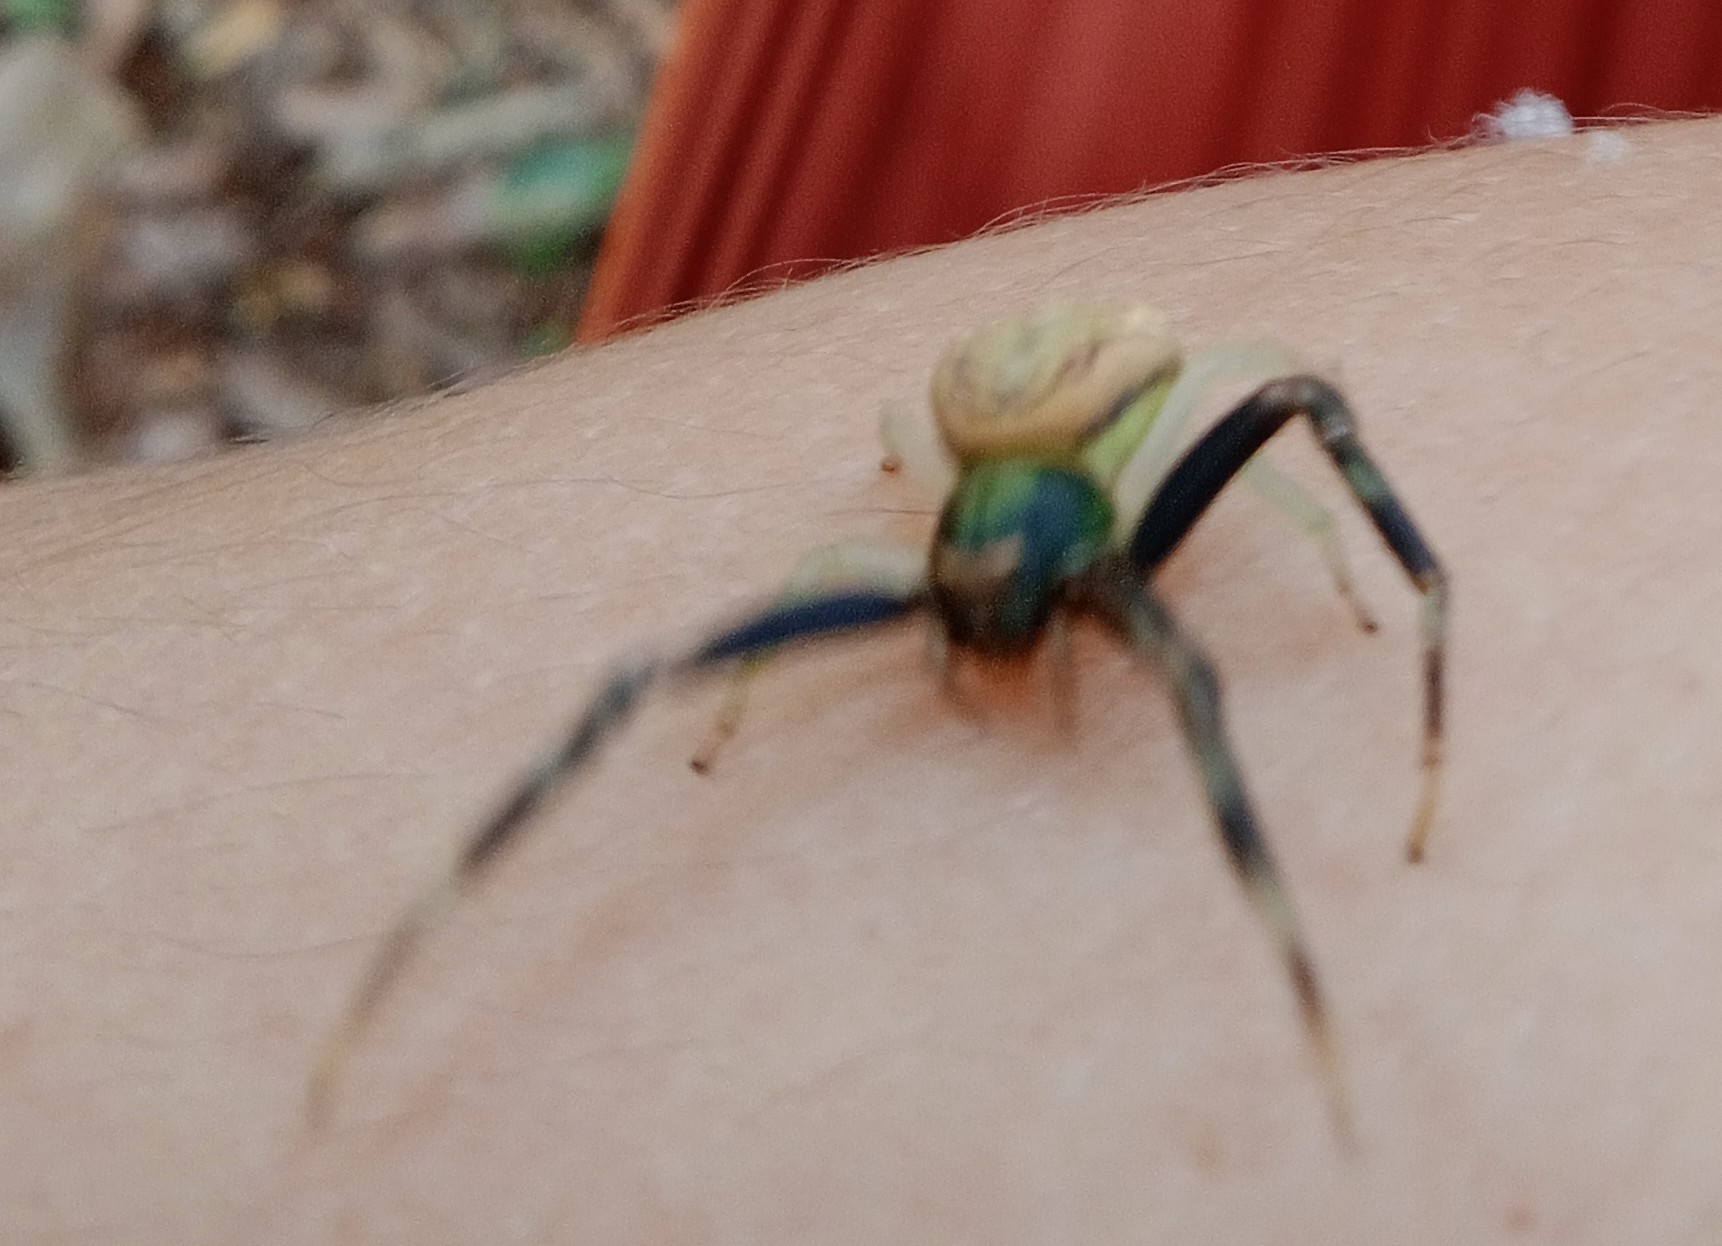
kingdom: Animalia
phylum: Arthropoda
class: Arachnida
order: Araneae
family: Thomisidae
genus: Runcinioides
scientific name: Runcinioides litteratus
